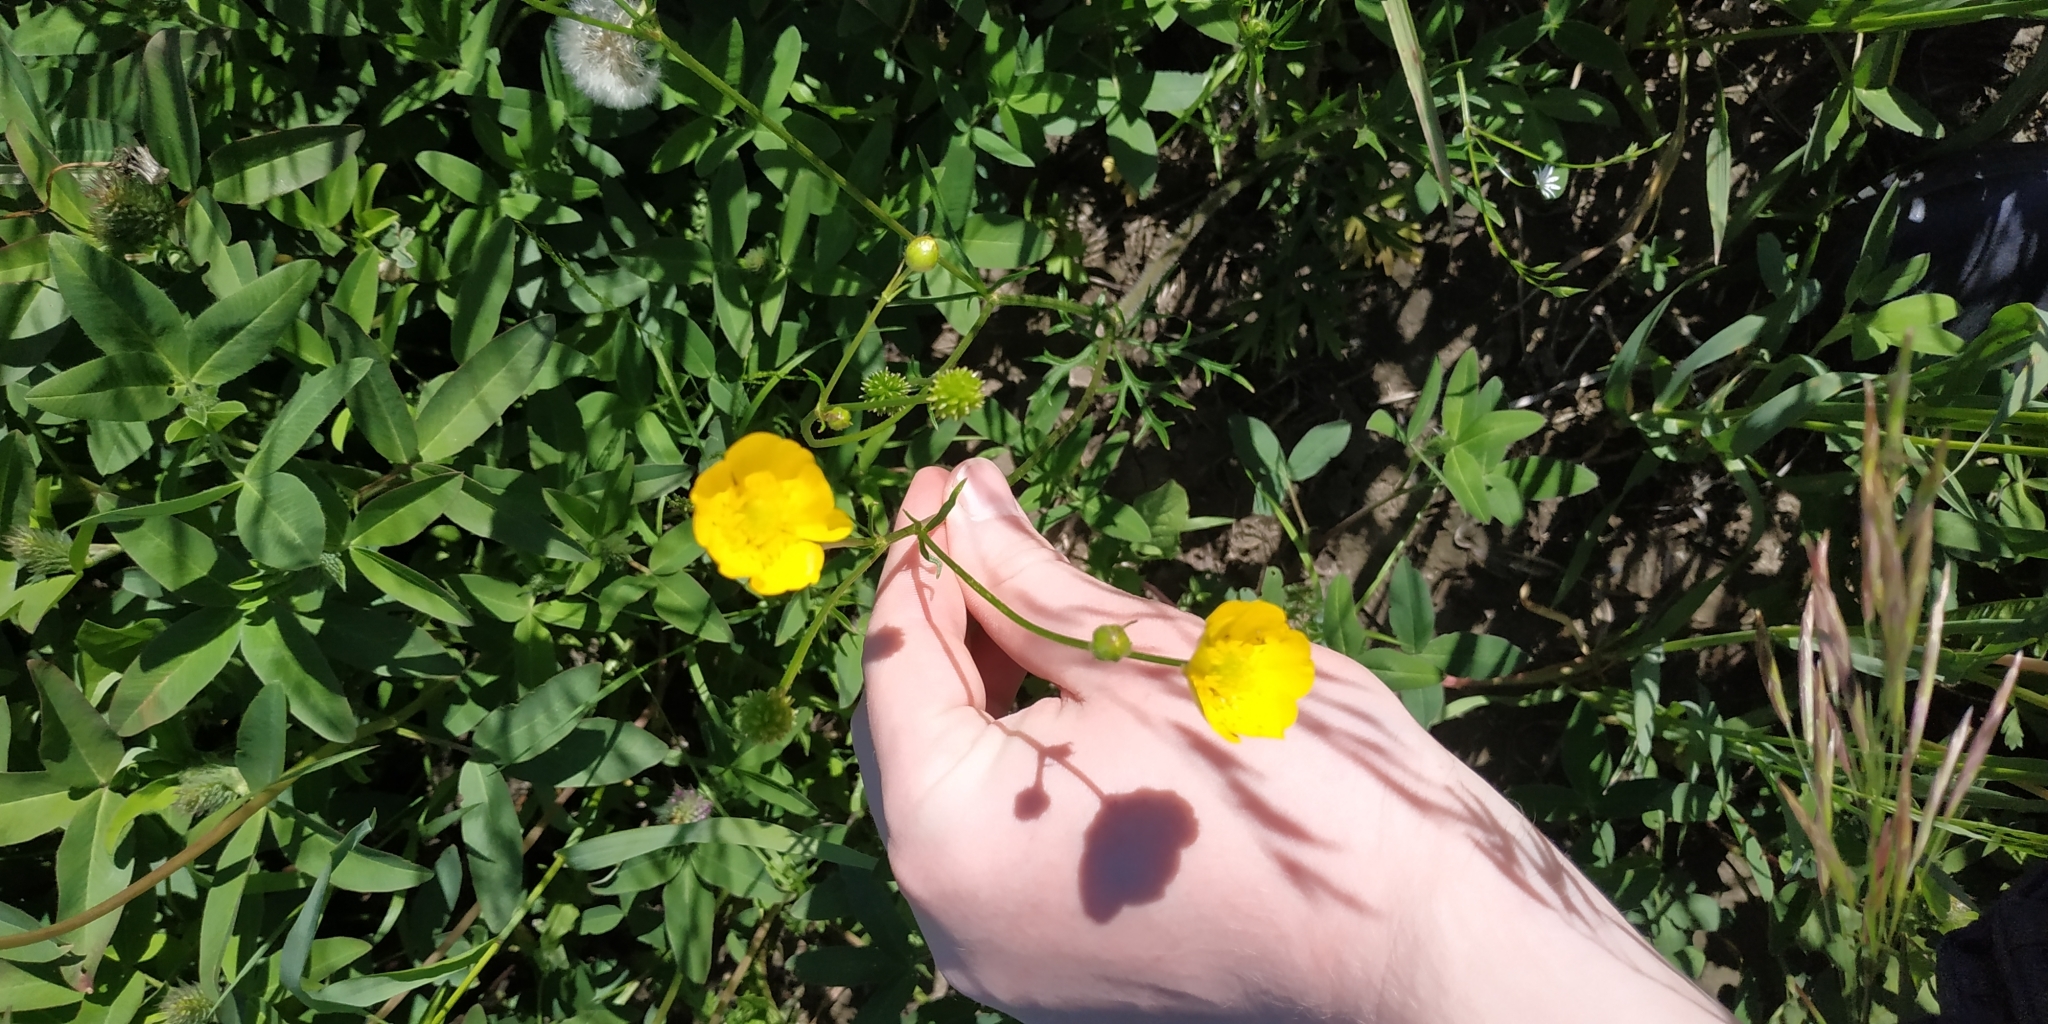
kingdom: Plantae
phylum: Tracheophyta
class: Magnoliopsida
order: Ranunculales
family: Ranunculaceae
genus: Ranunculus
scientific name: Ranunculus polyanthemos
